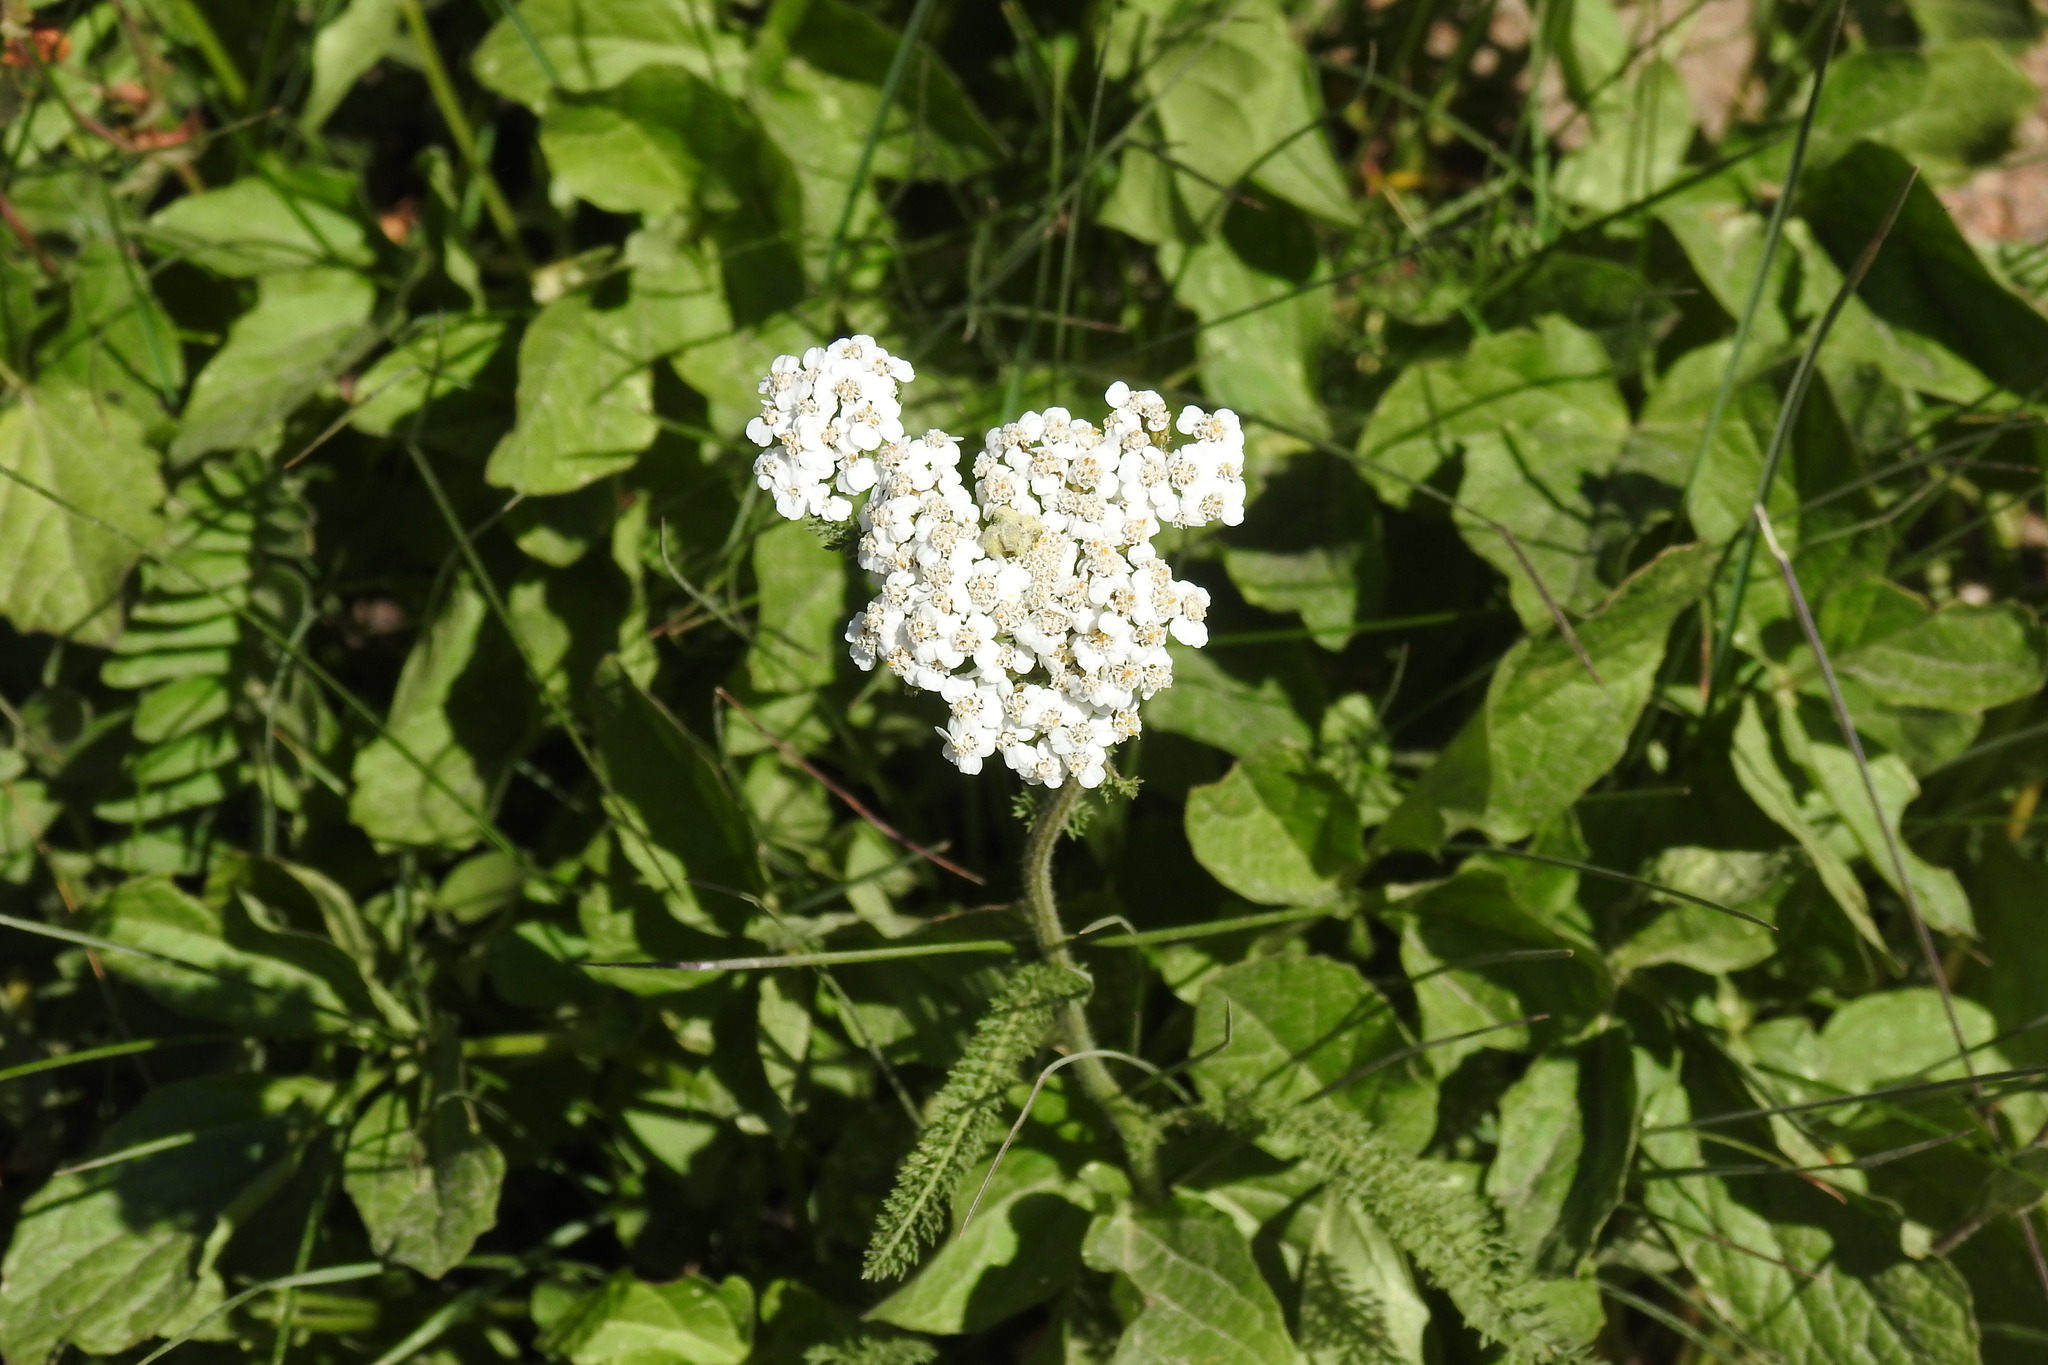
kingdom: Plantae
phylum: Tracheophyta
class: Magnoliopsida
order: Asterales
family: Asteraceae
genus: Achillea
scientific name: Achillea millefolium
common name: Yarrow
